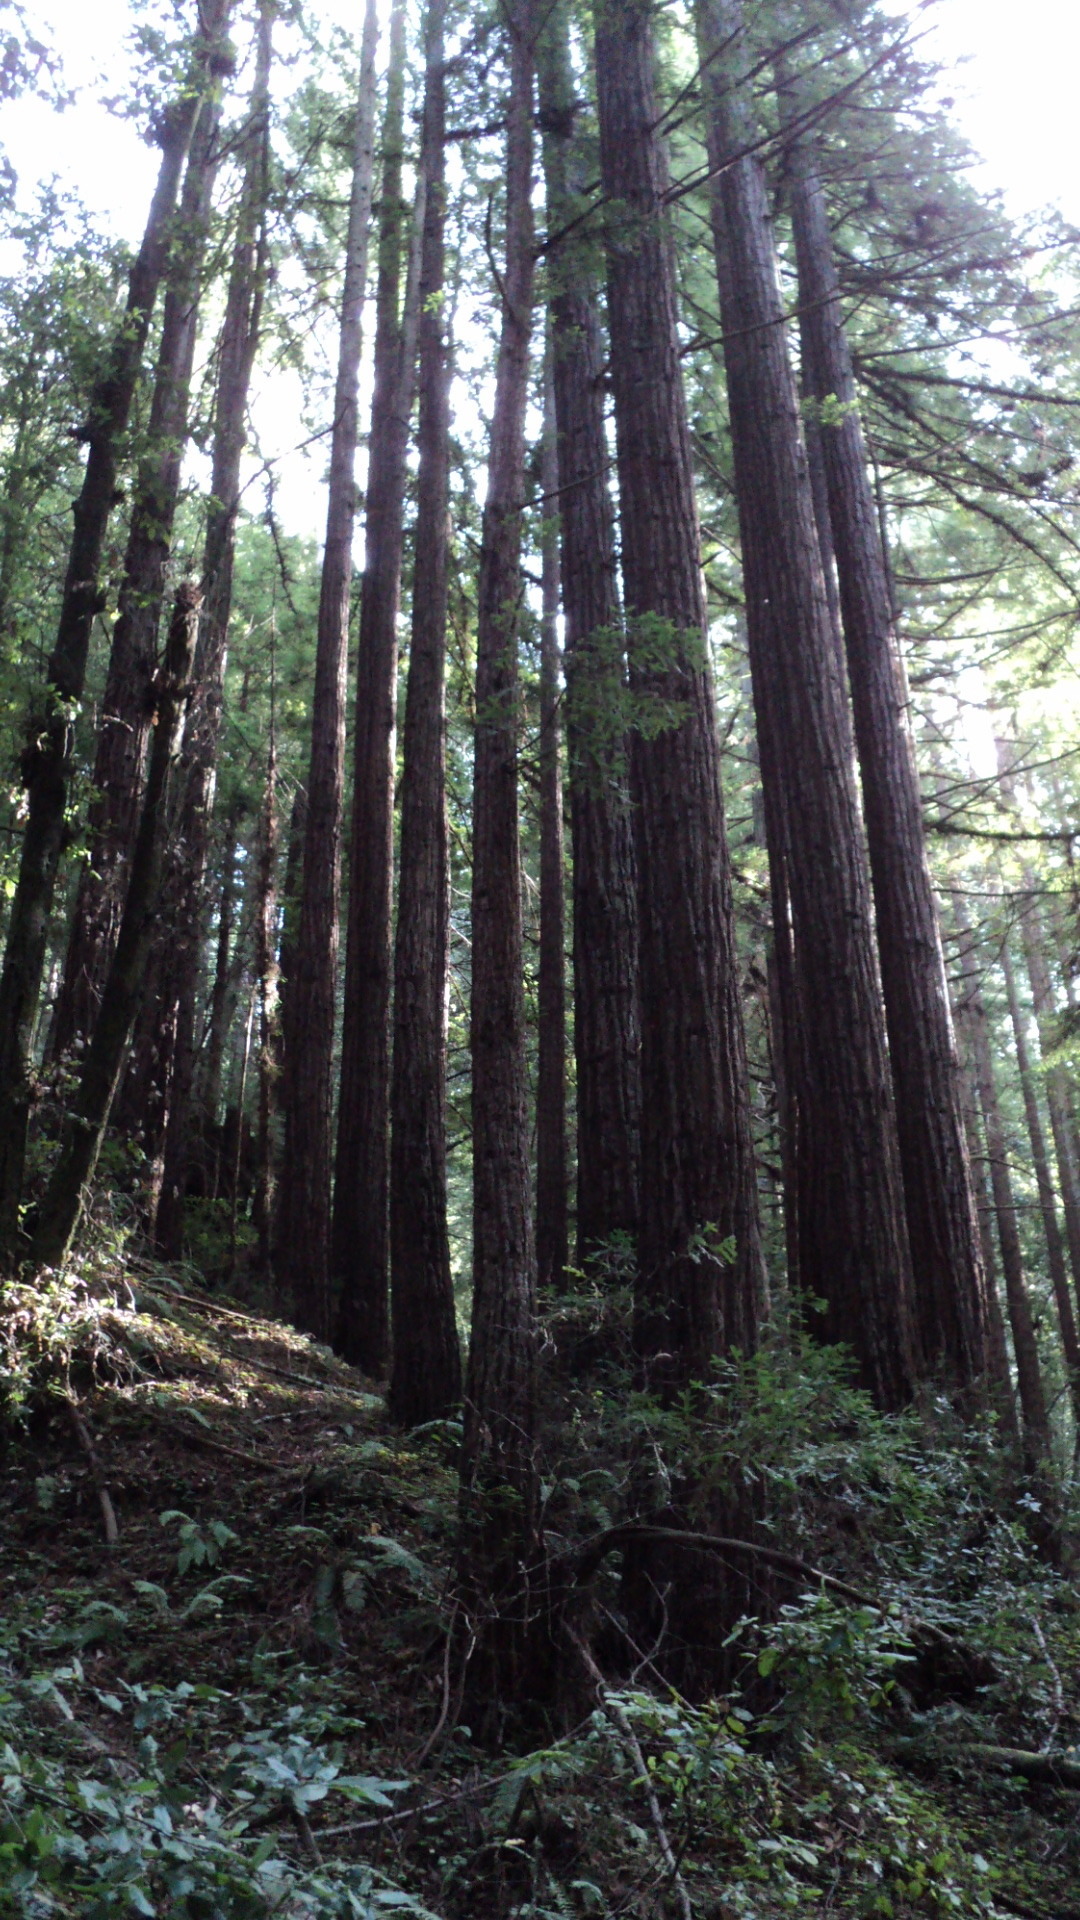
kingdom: Plantae
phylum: Tracheophyta
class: Pinopsida
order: Pinales
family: Cupressaceae
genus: Sequoia
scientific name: Sequoia sempervirens
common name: Coast redwood
